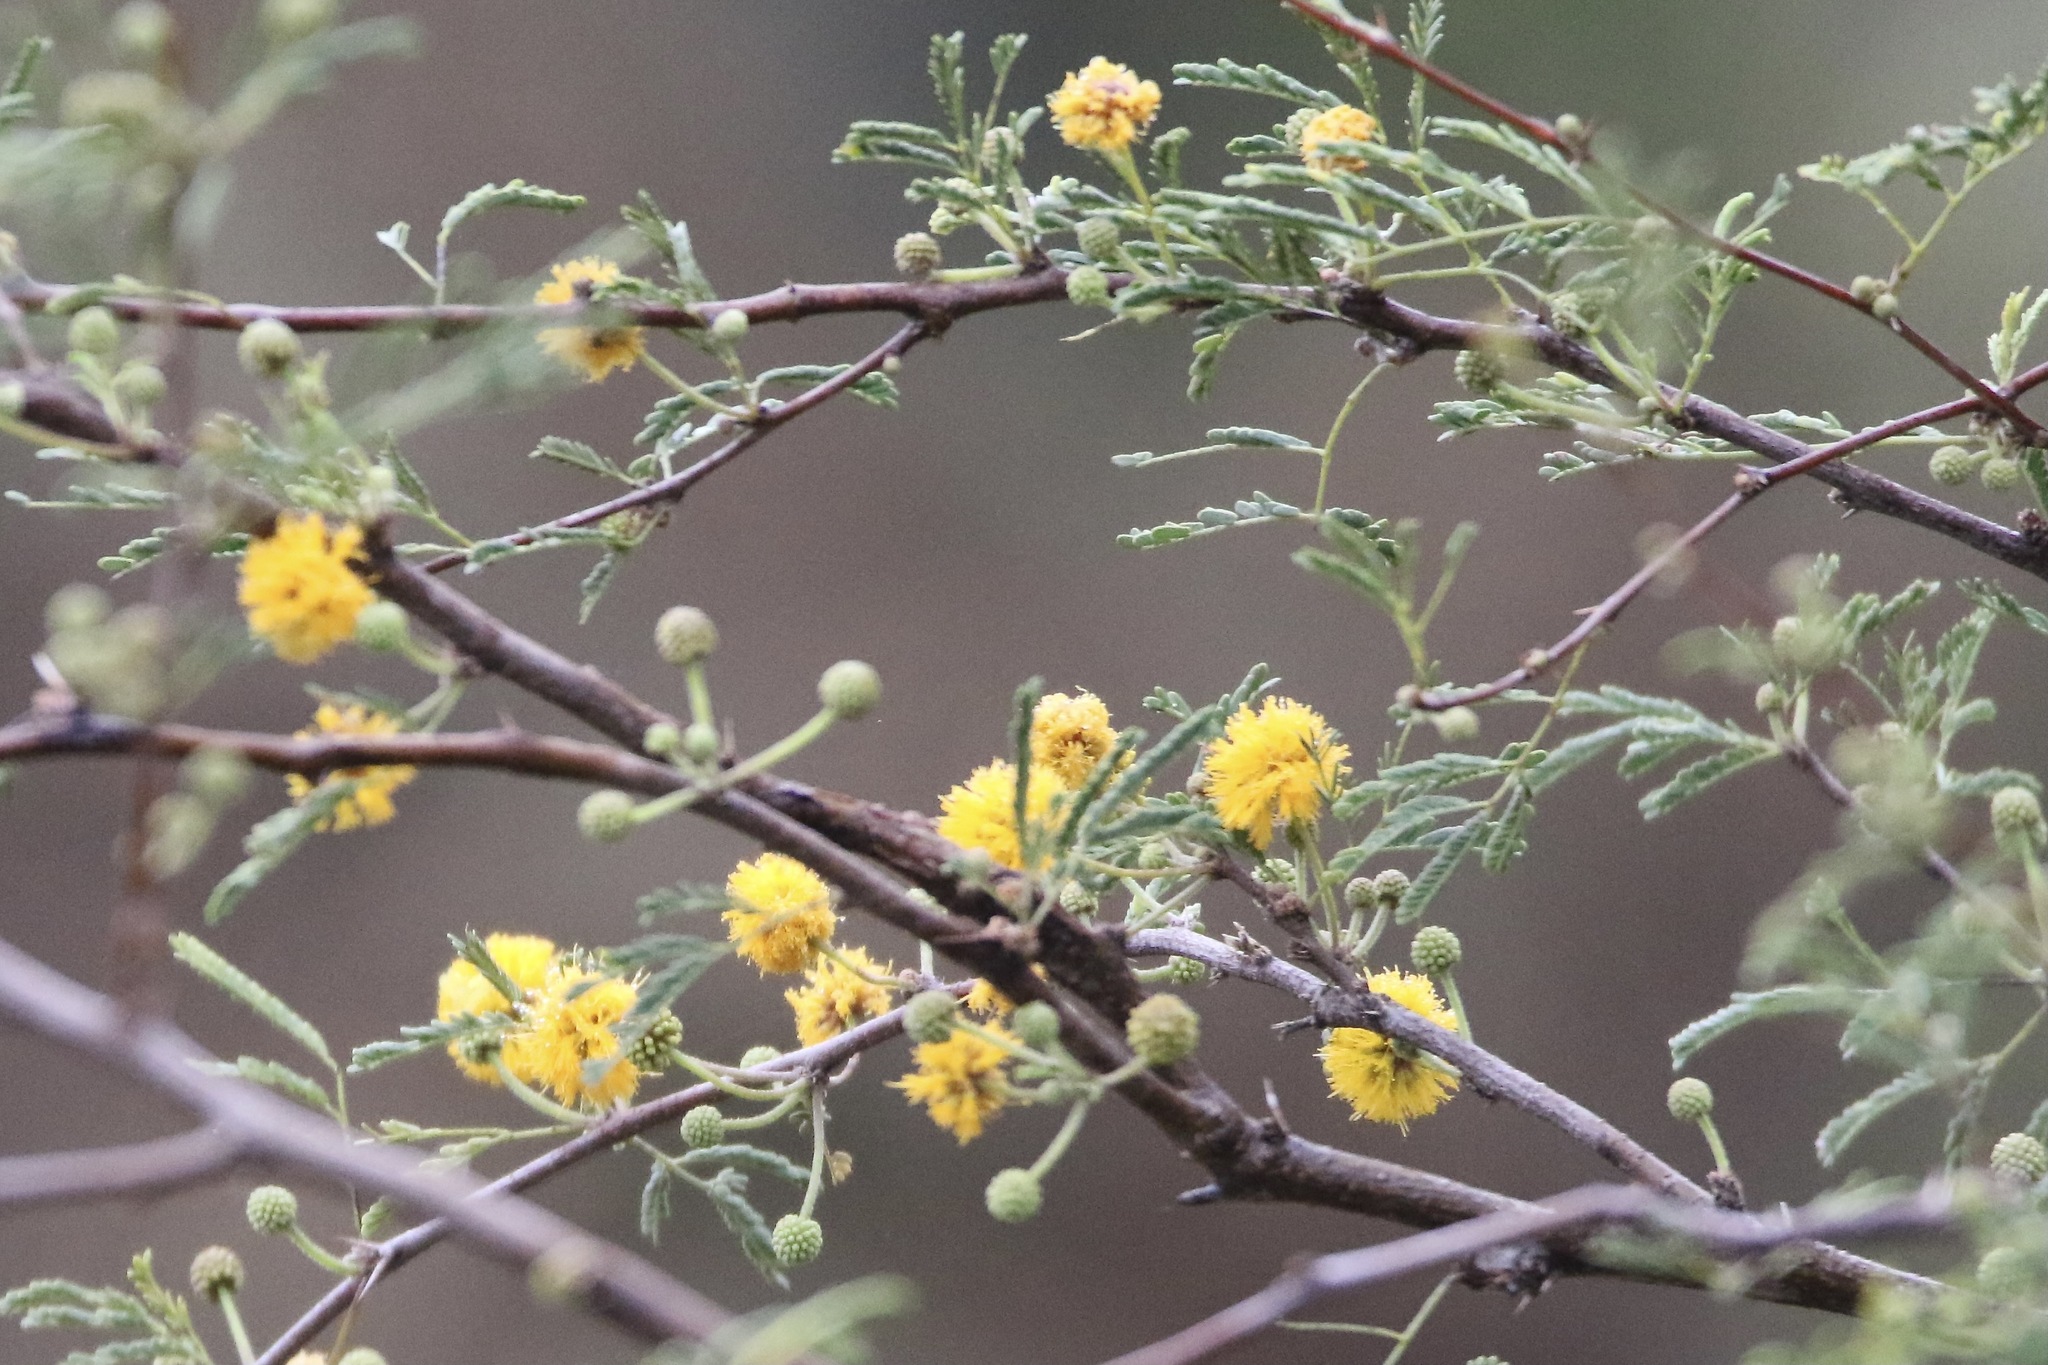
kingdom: Plantae
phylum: Tracheophyta
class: Magnoliopsida
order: Fabales
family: Fabaceae
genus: Vachellia
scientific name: Vachellia farnesiana
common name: Sweet acacia
